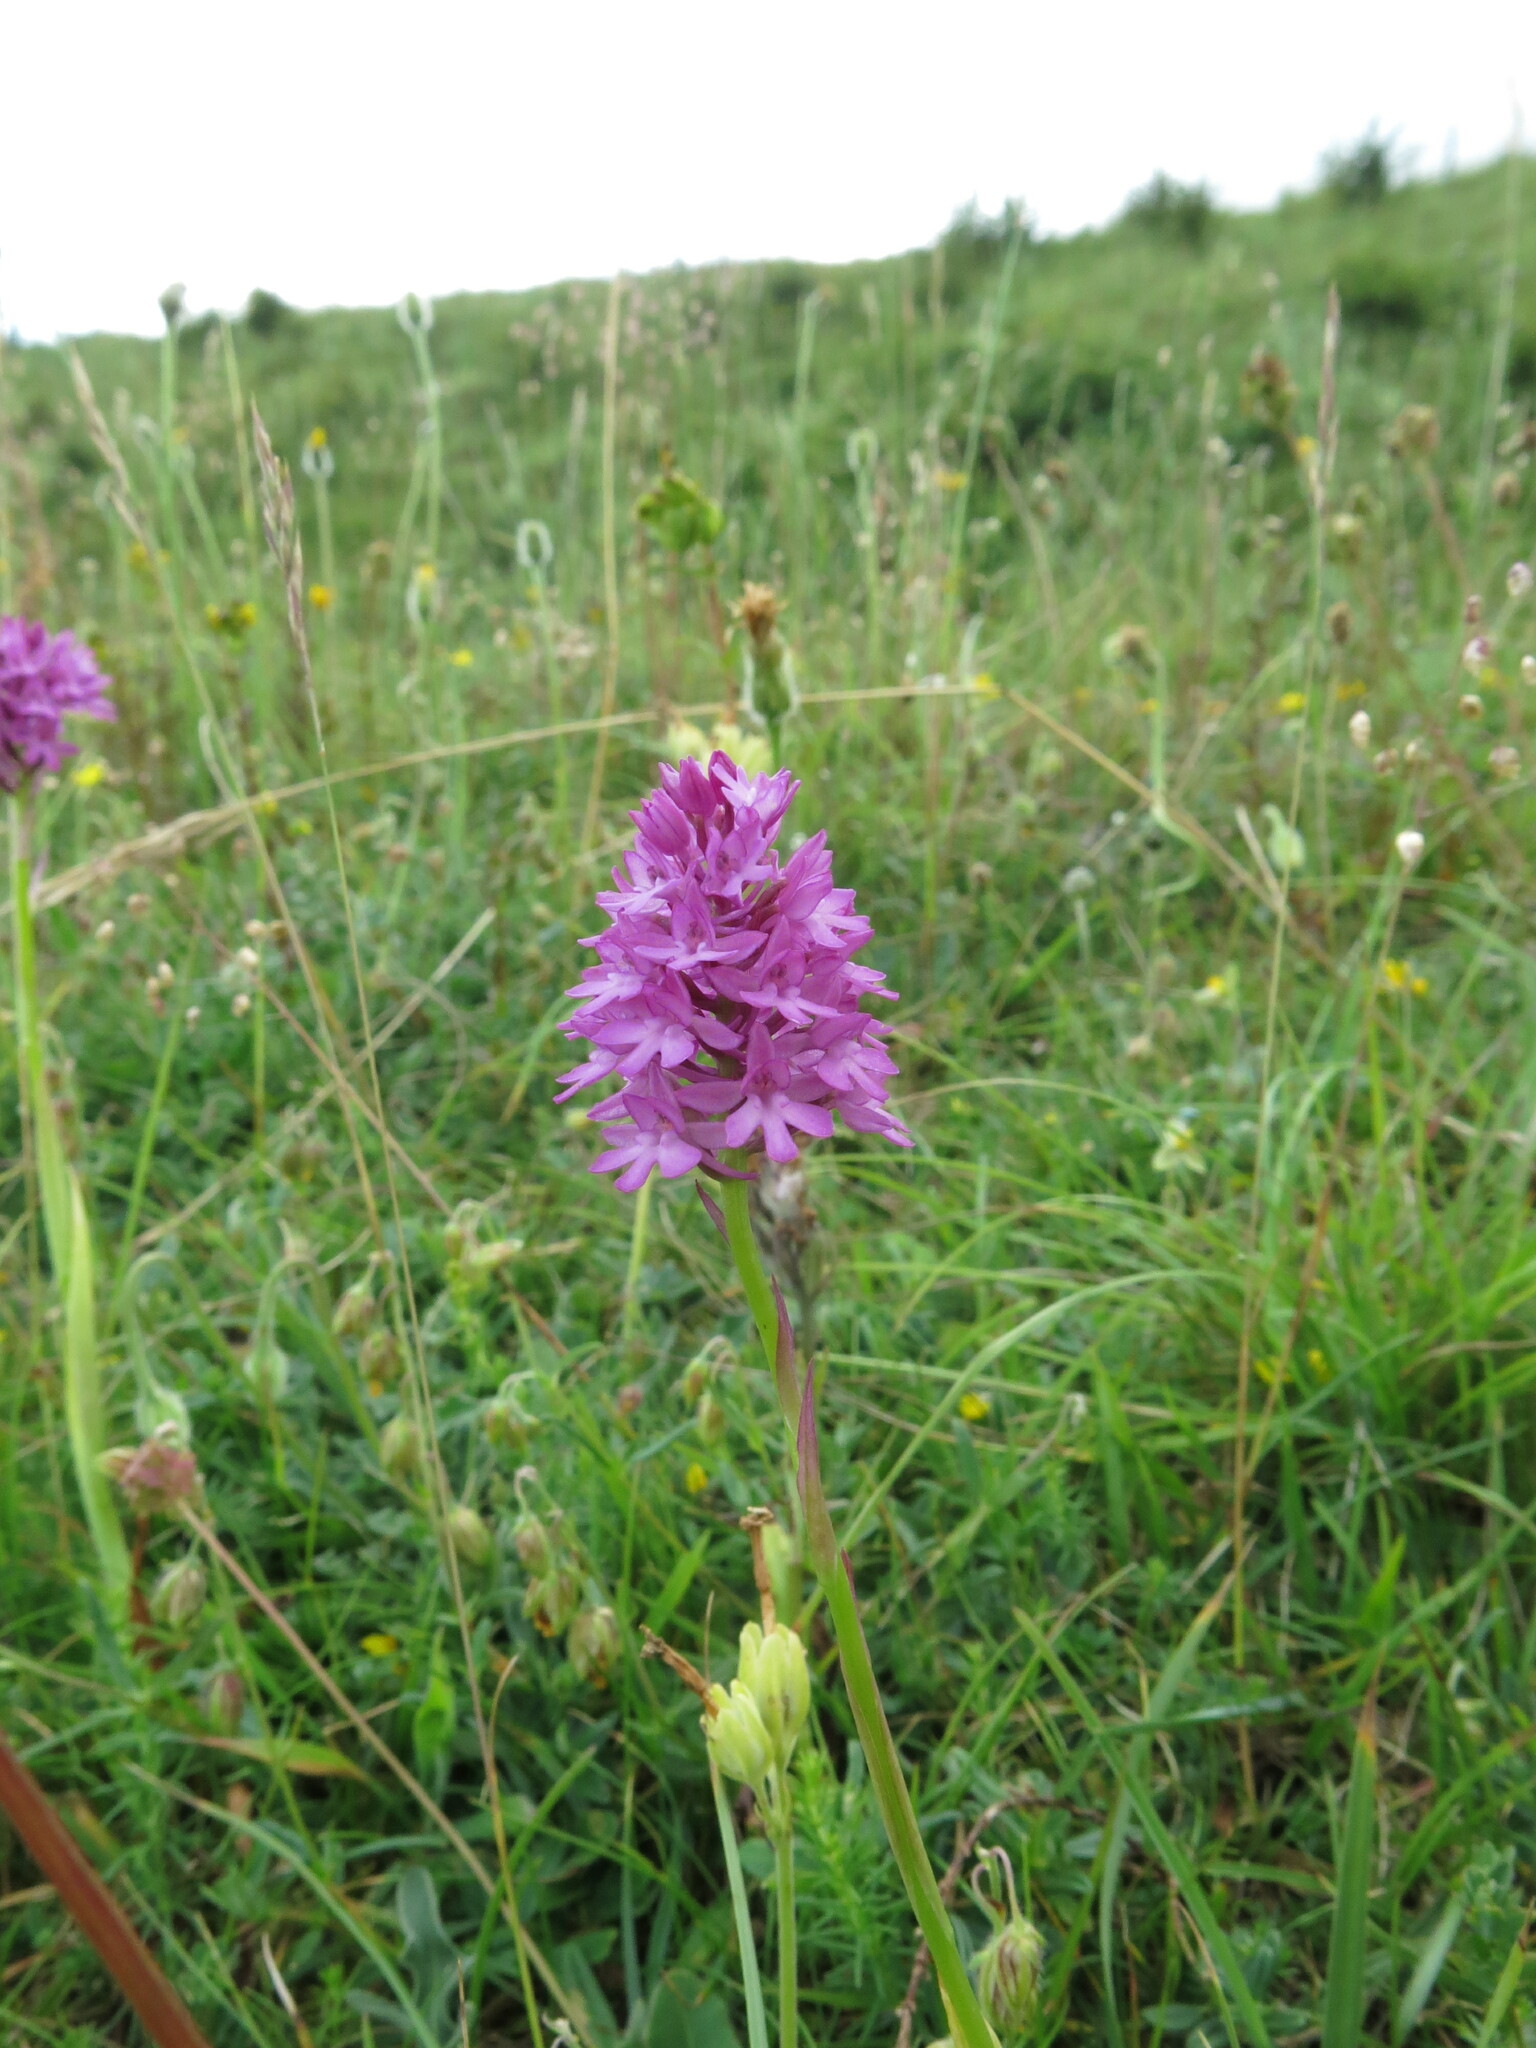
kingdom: Plantae
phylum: Tracheophyta
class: Liliopsida
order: Asparagales
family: Orchidaceae
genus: Anacamptis
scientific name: Anacamptis pyramidalis
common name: Pyramidal orchid
